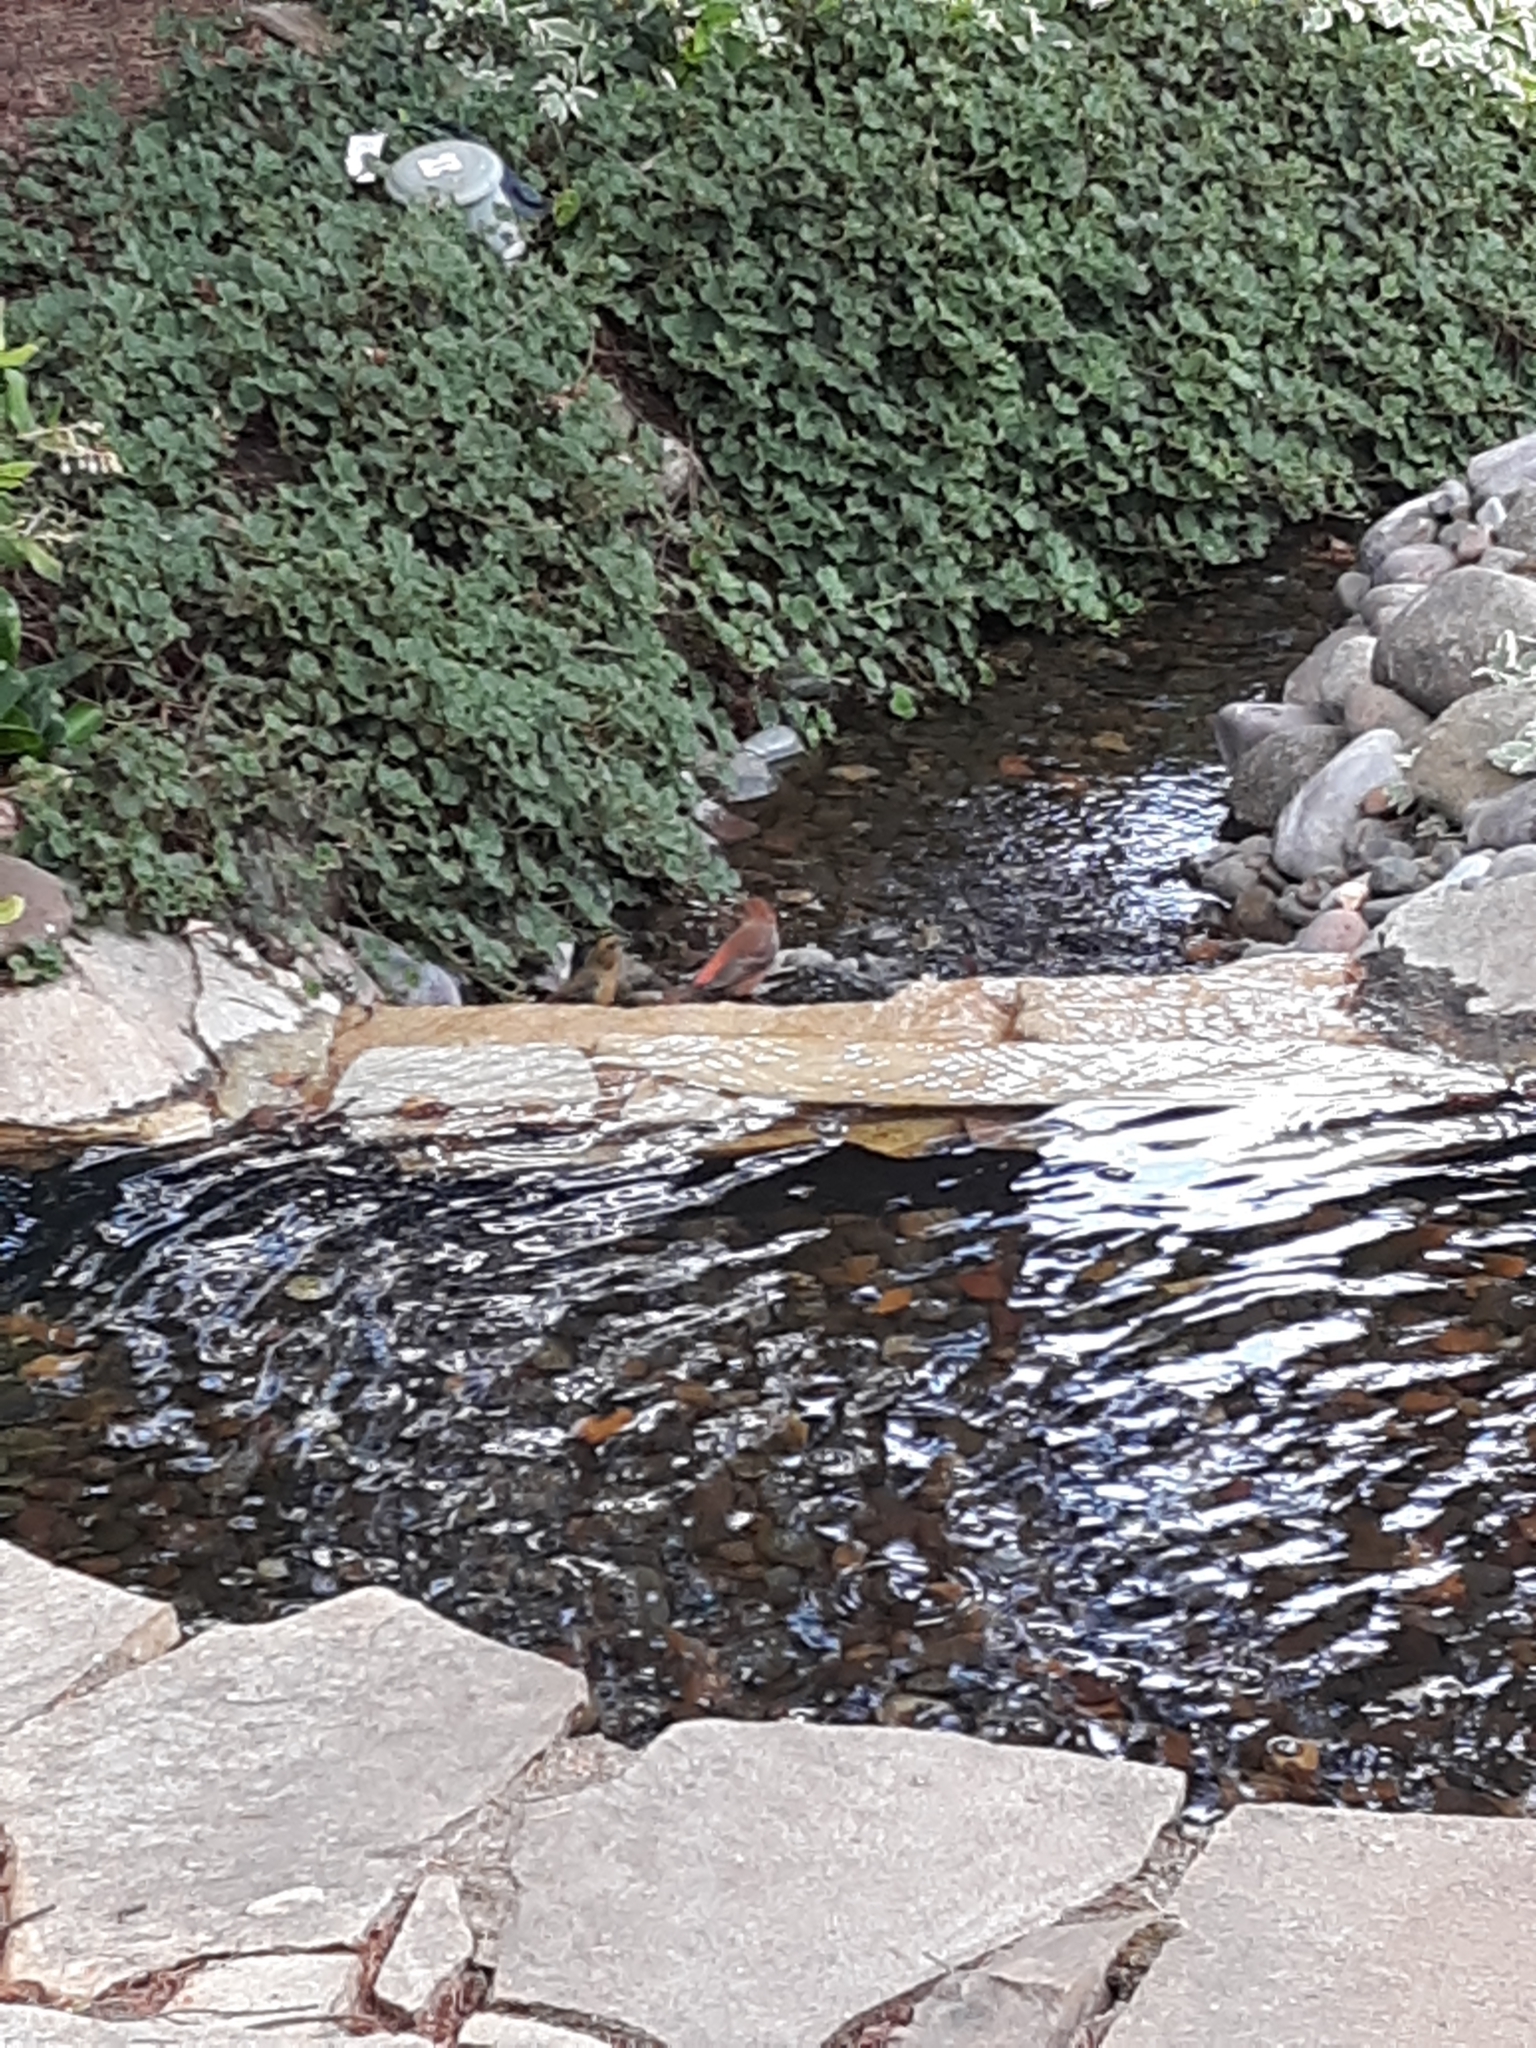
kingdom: Animalia
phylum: Chordata
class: Aves
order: Passeriformes
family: Fringillidae
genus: Loxia
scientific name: Loxia curvirostra
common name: Red crossbill
